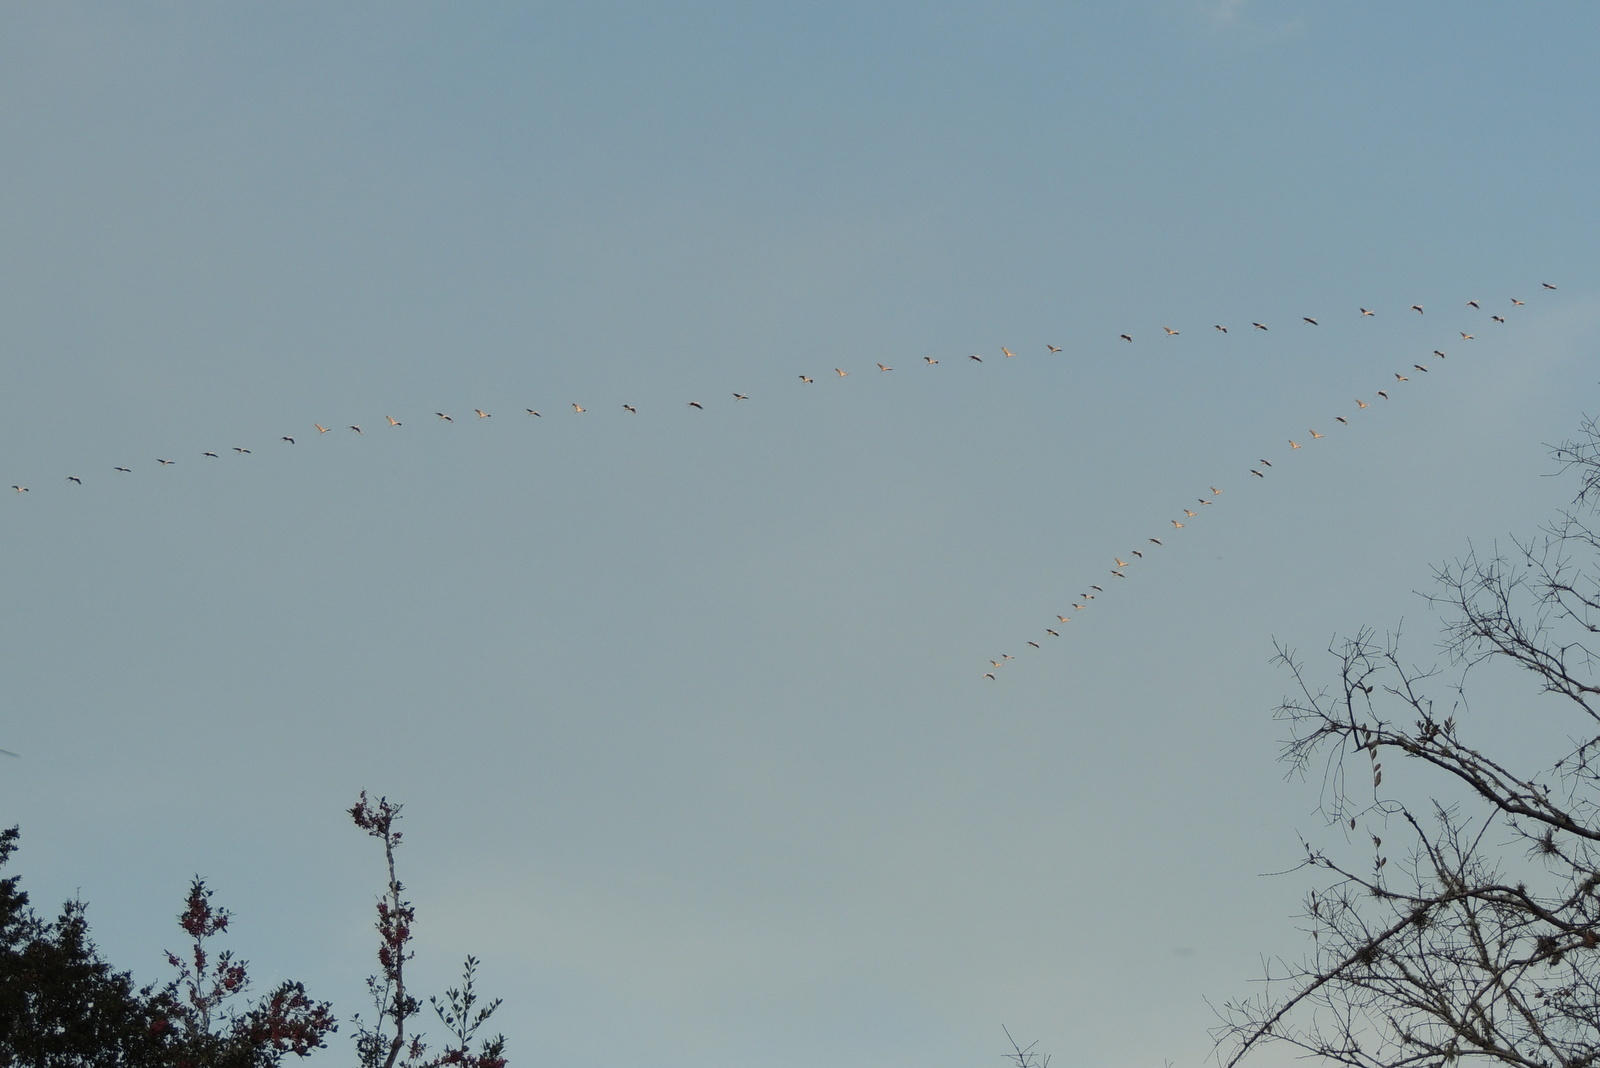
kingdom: Animalia
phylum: Chordata
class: Aves
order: Gruiformes
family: Gruidae
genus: Grus
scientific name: Grus canadensis
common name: Sandhill crane
